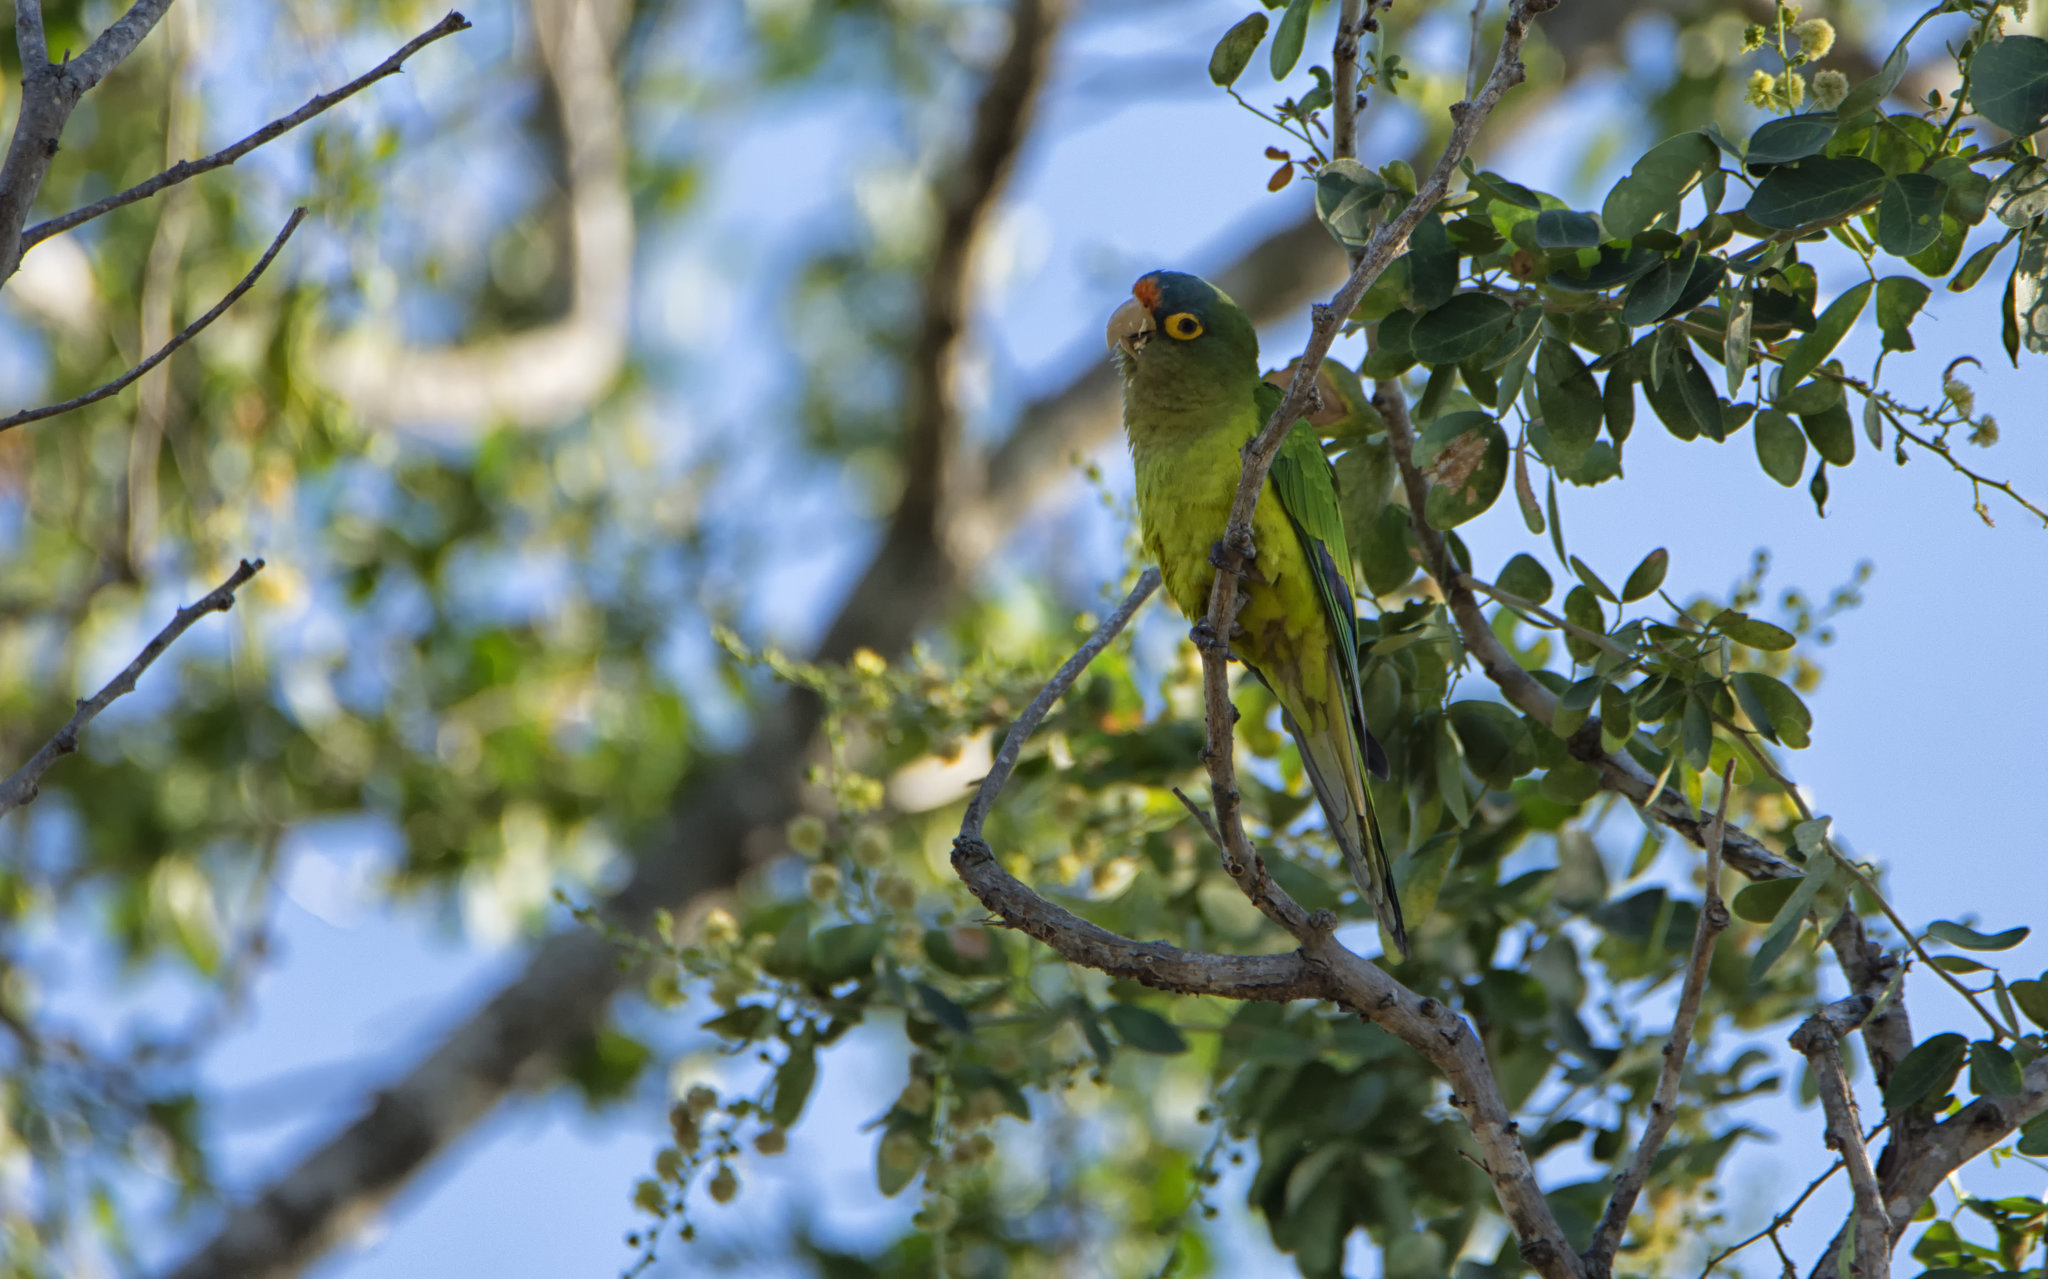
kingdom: Animalia
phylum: Chordata
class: Aves
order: Psittaciformes
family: Psittacidae
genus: Aratinga
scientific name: Aratinga canicularis
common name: Orange-fronted parakeet
